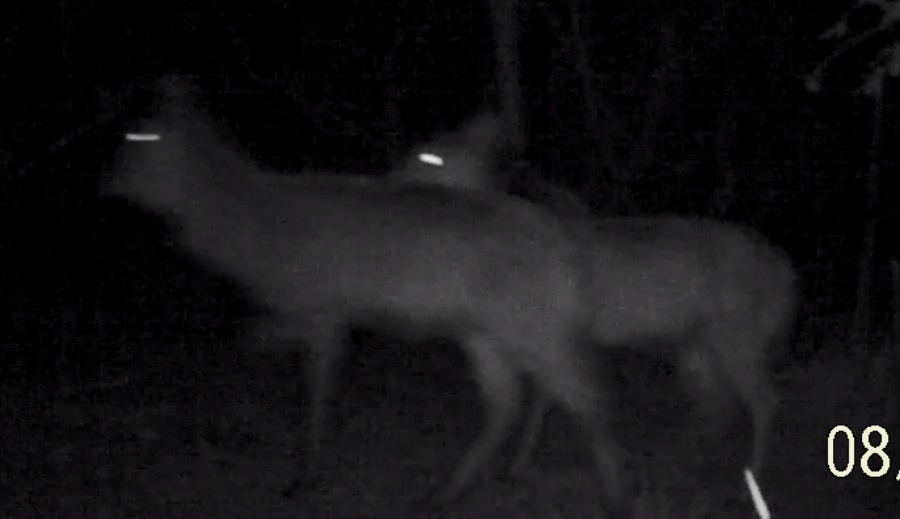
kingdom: Animalia
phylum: Chordata
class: Mammalia
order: Artiodactyla
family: Bovidae
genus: Kobus
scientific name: Kobus ellipsiprymnus
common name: Waterbuck
